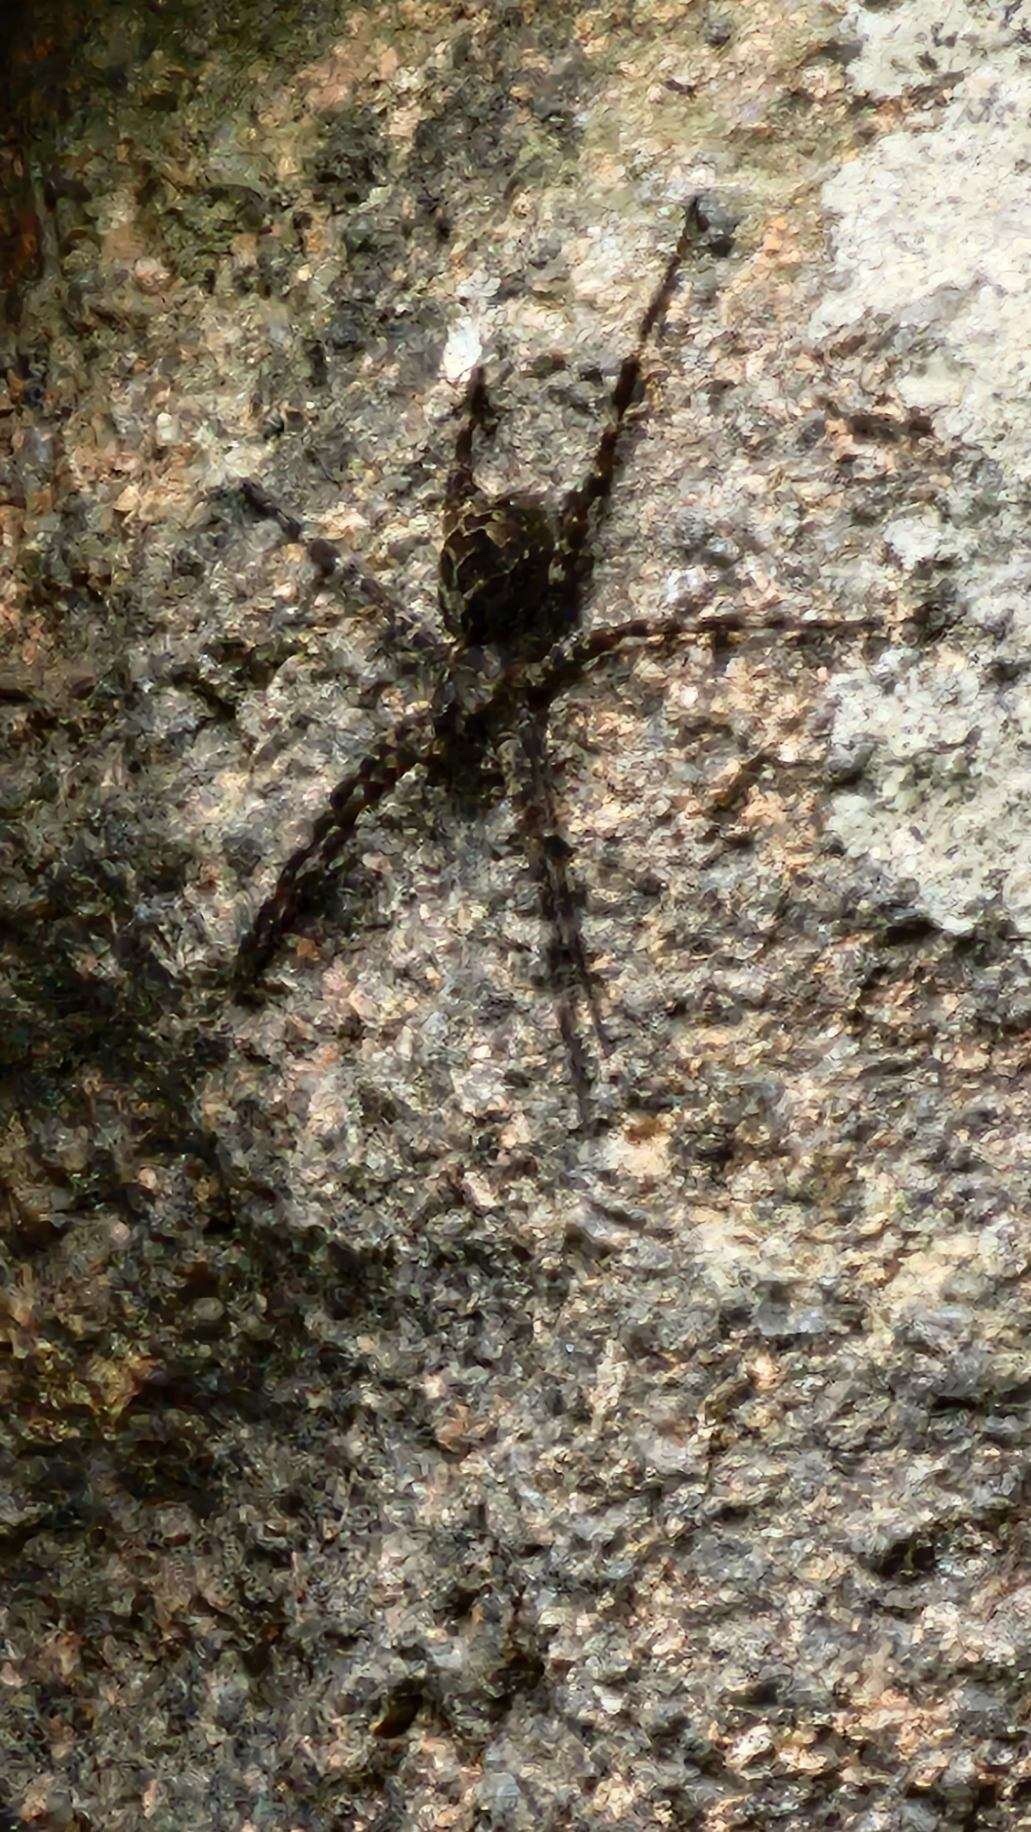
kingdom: Animalia
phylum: Arthropoda
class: Arachnida
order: Araneae
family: Pisauridae
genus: Dolomedes
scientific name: Dolomedes scriptus
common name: Striped fishing spider
